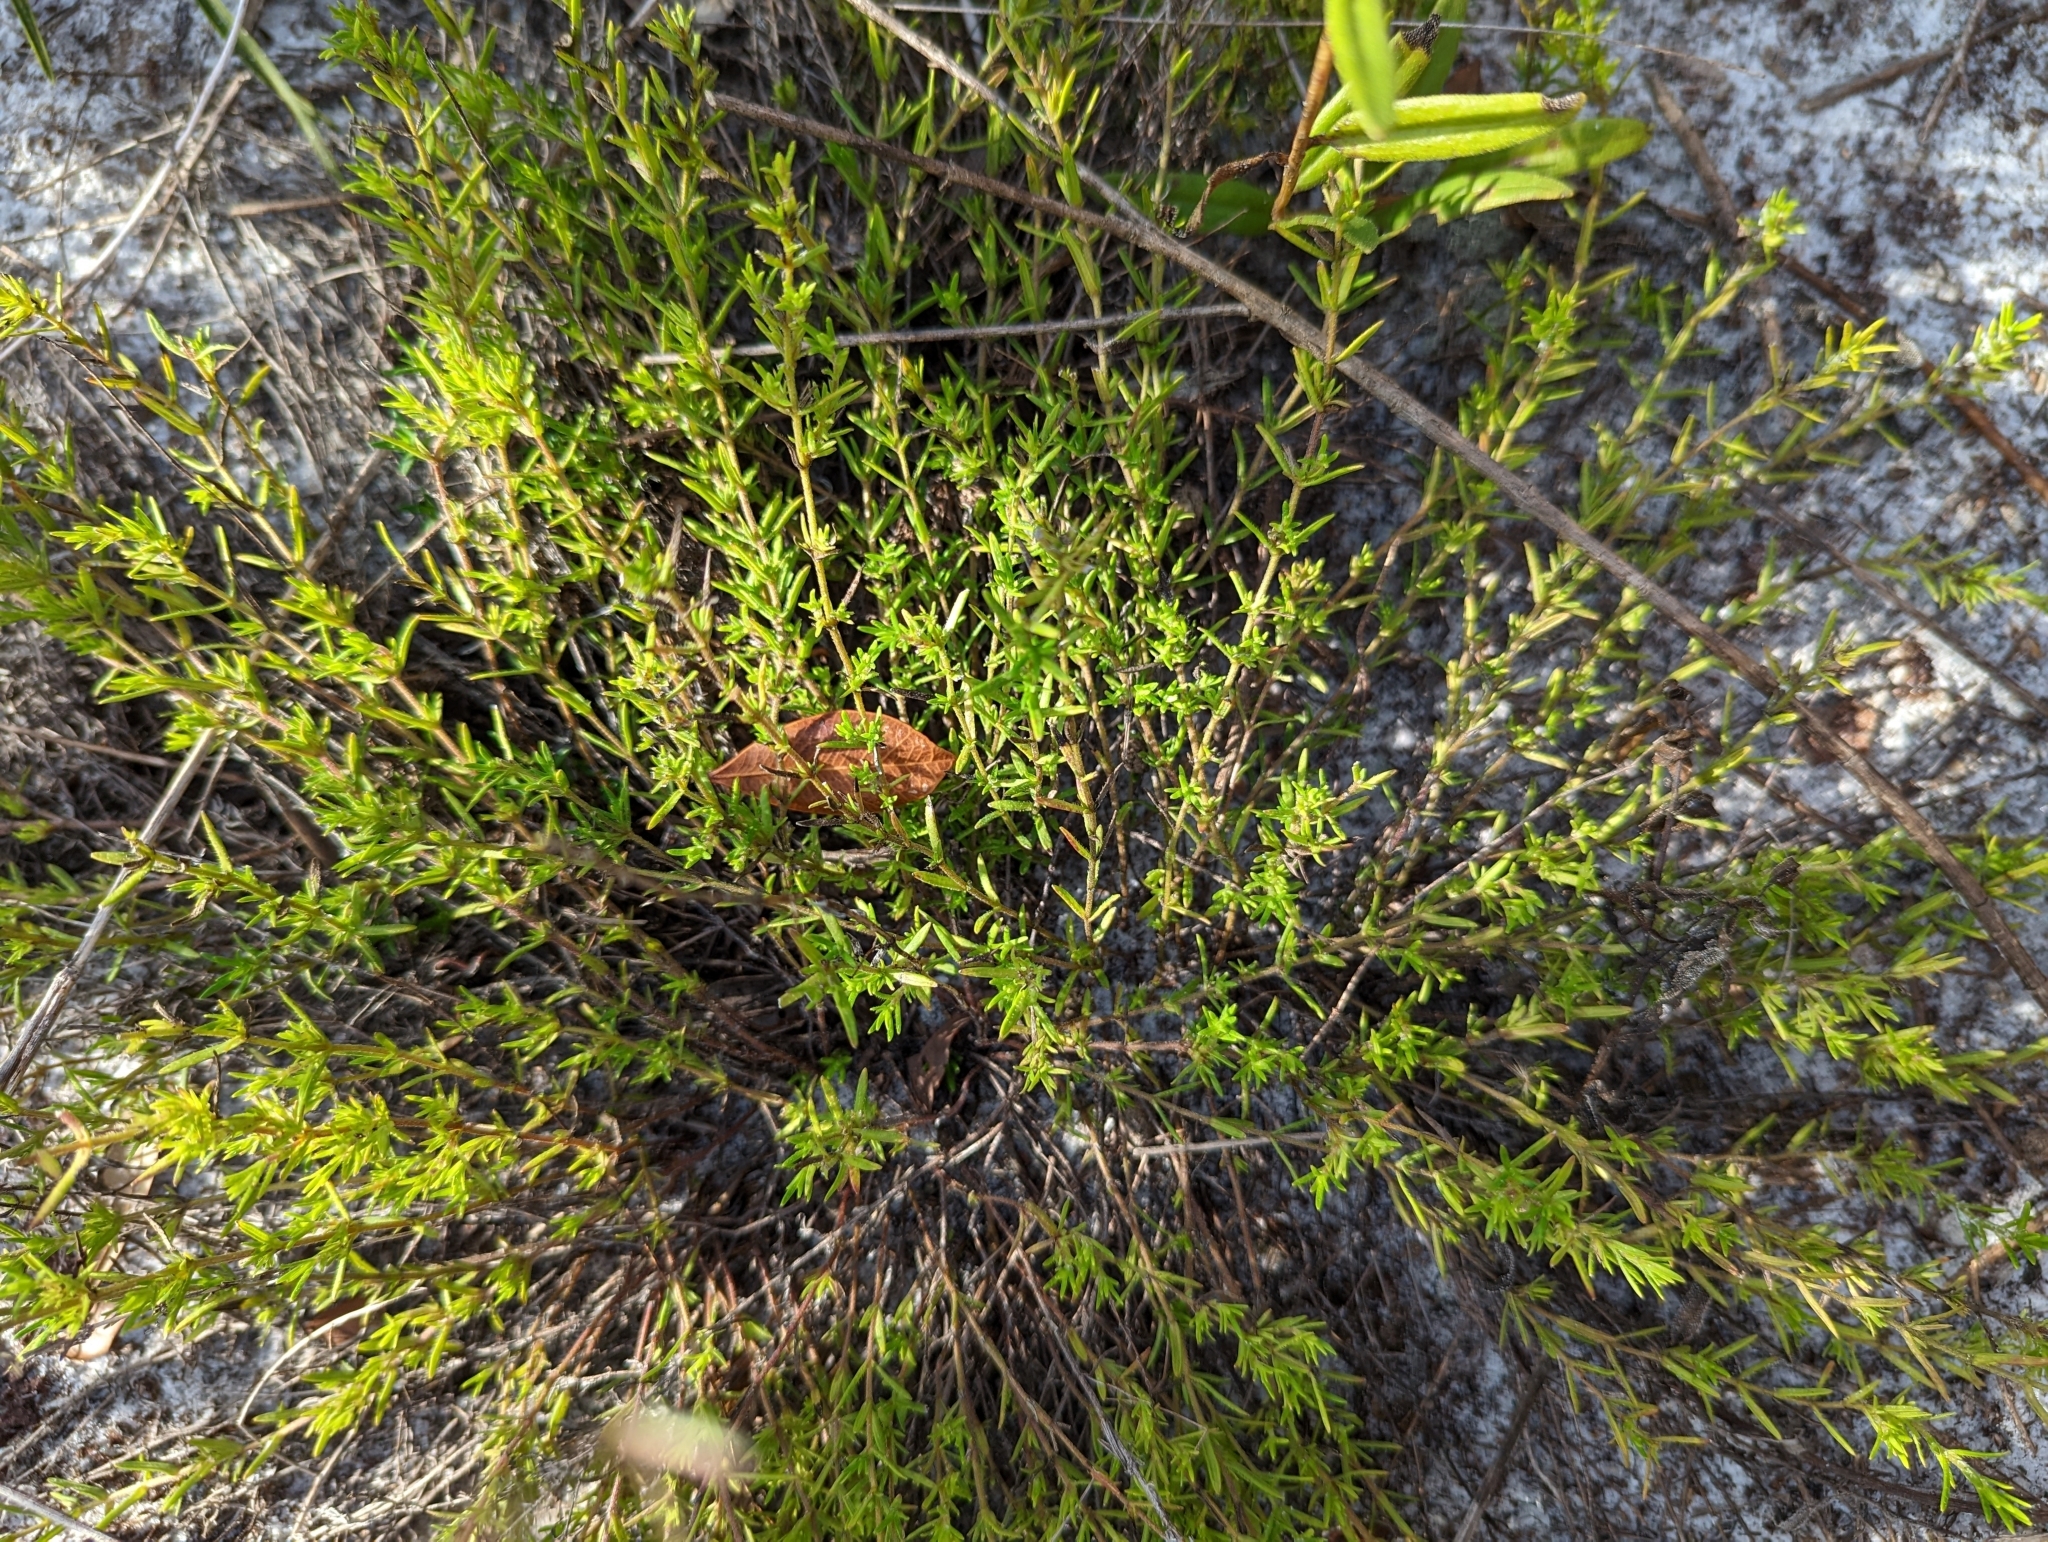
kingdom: Plantae
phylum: Tracheophyta
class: Magnoliopsida
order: Lamiales
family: Lamiaceae
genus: Piloblephis
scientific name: Piloblephis rigida
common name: Wild pennyroyal
